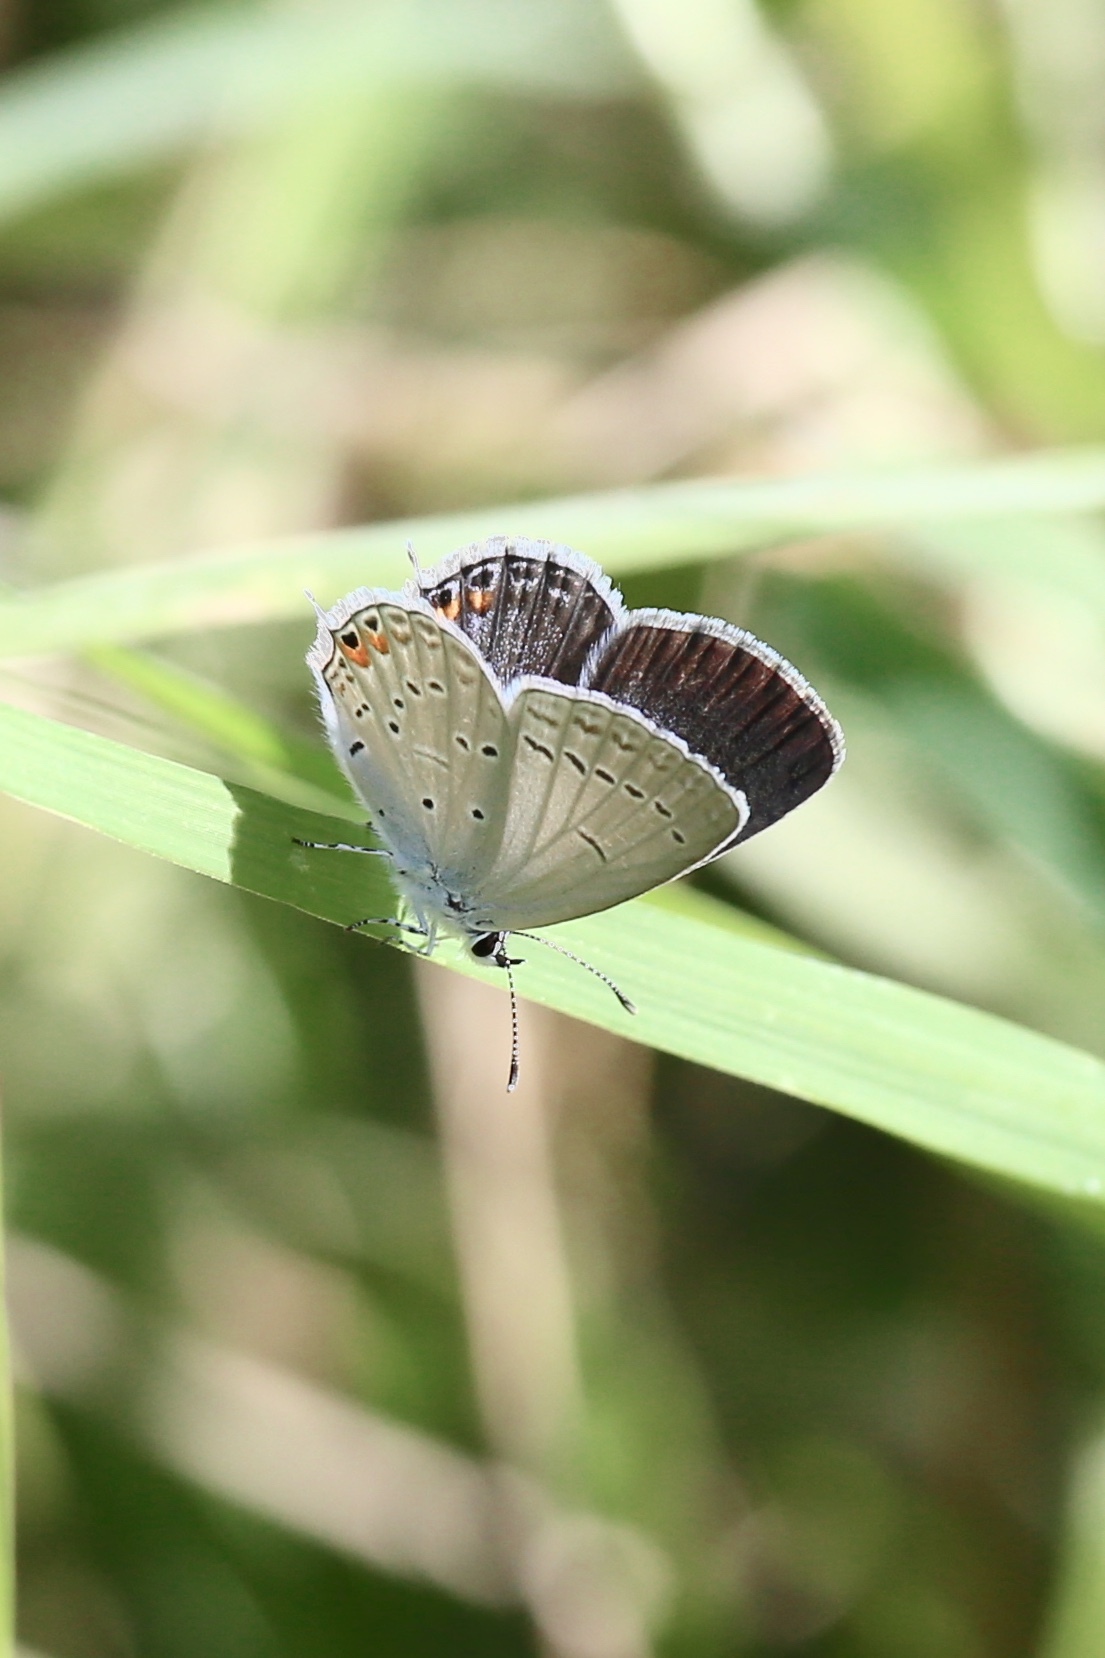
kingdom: Animalia
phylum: Arthropoda
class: Insecta
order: Lepidoptera
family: Lycaenidae
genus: Elkalyce
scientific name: Elkalyce texana
